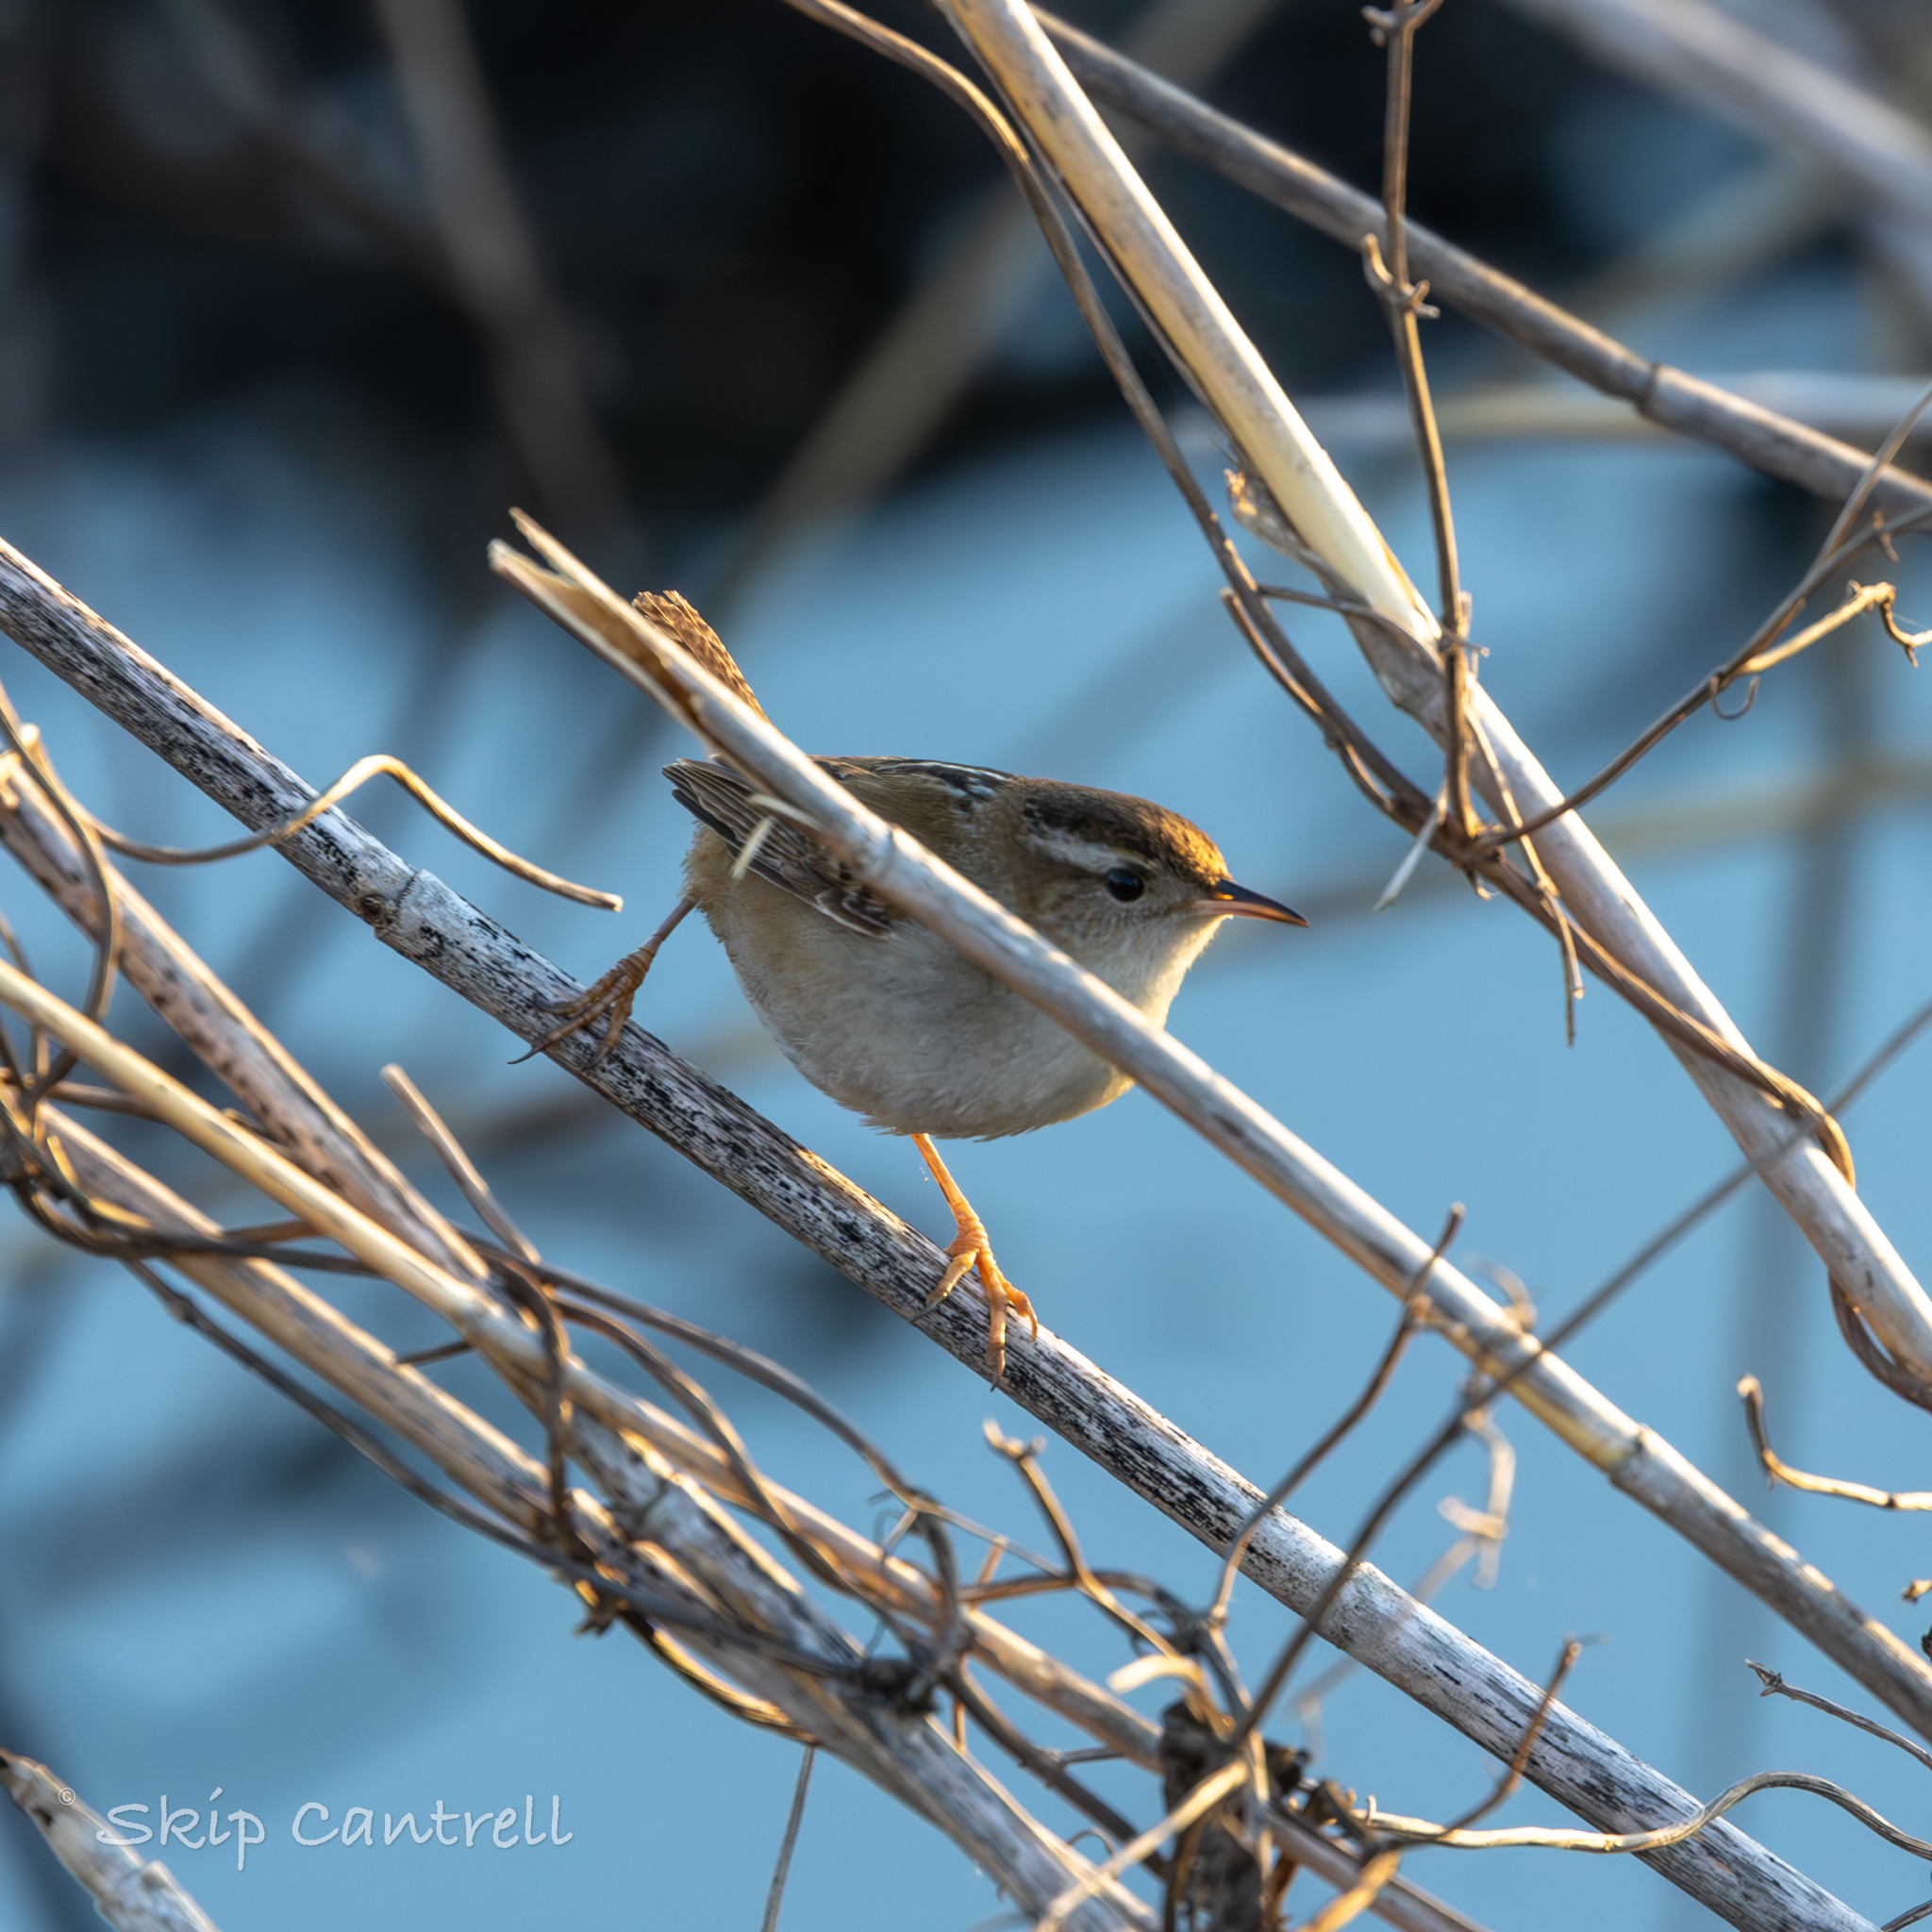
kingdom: Animalia
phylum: Chordata
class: Aves
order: Passeriformes
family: Troglodytidae
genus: Cistothorus
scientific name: Cistothorus palustris
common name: Marsh wren
